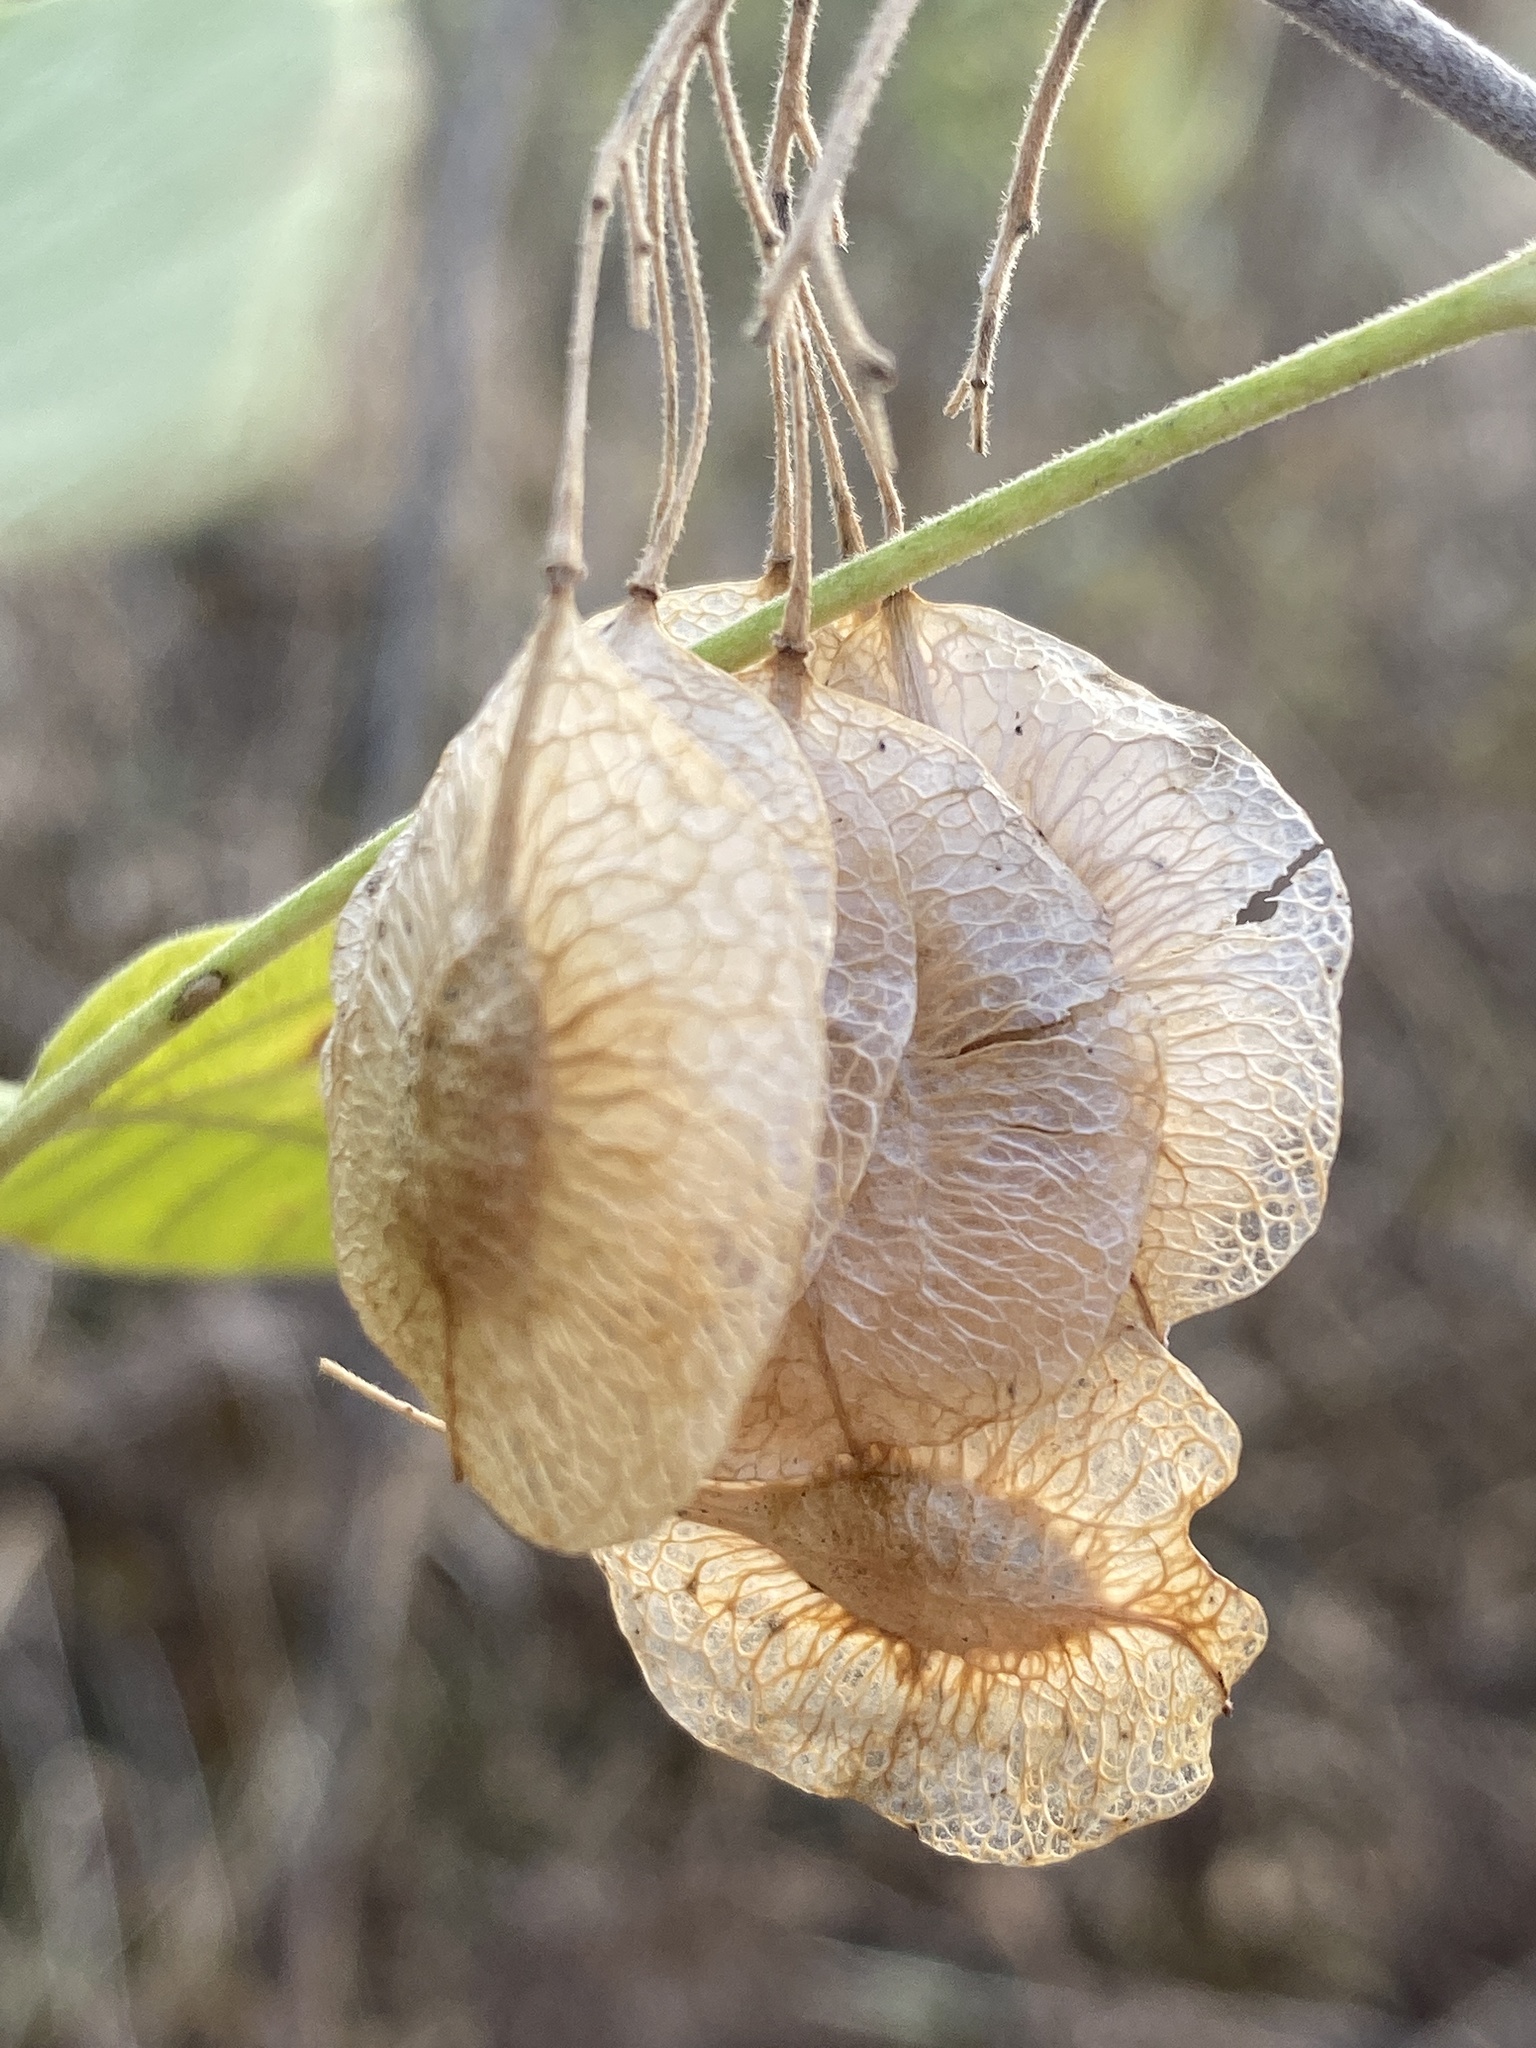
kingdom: Plantae
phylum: Tracheophyta
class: Magnoliopsida
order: Sapindales
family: Rutaceae
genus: Ptelea
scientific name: Ptelea trifoliata
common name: Common hop-tree
